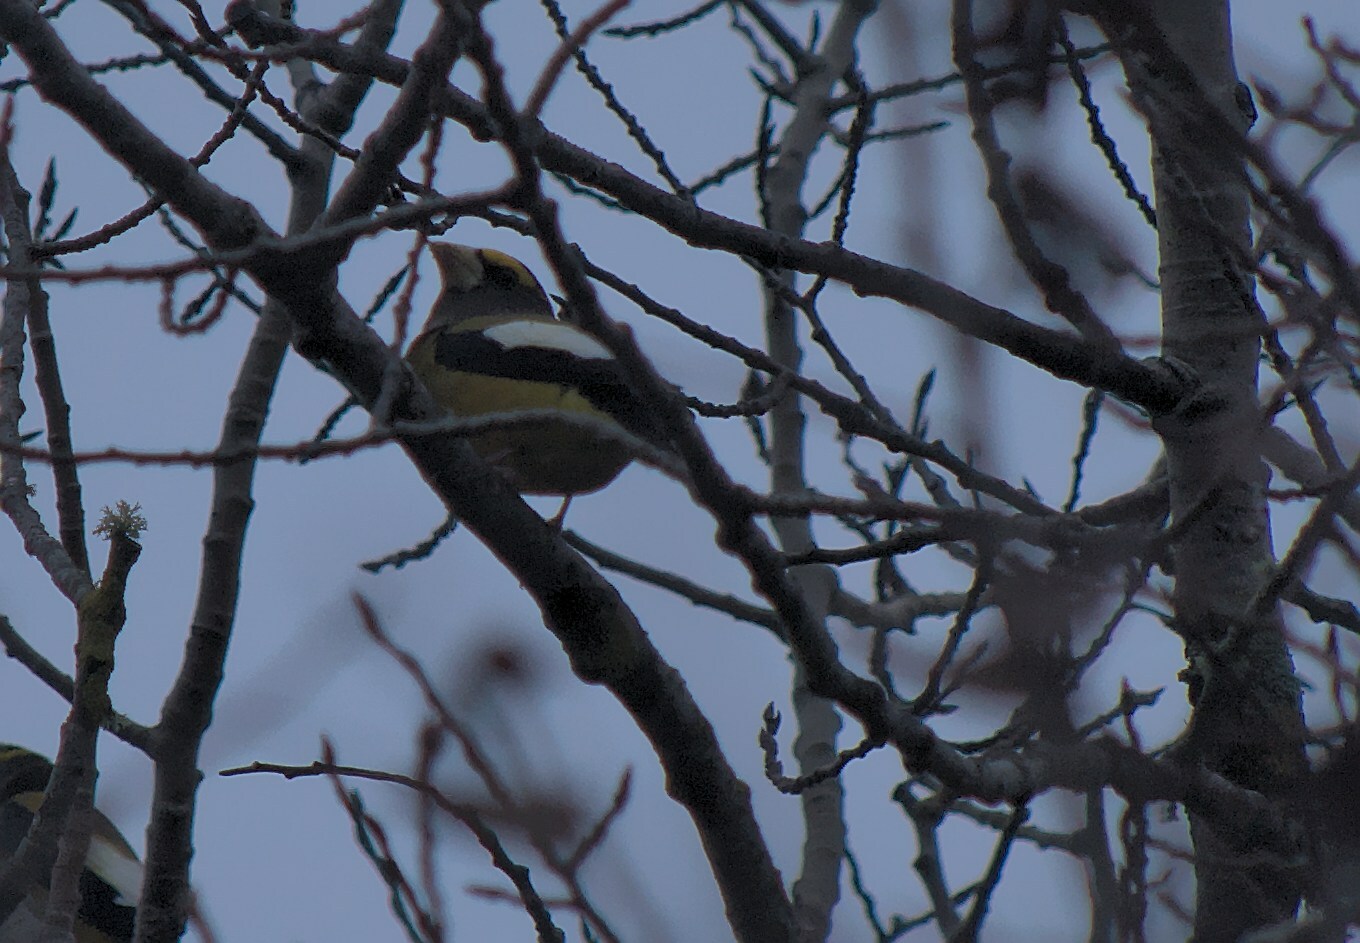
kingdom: Animalia
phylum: Chordata
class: Aves
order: Passeriformes
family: Fringillidae
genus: Hesperiphona
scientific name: Hesperiphona vespertina
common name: Evening grosbeak
